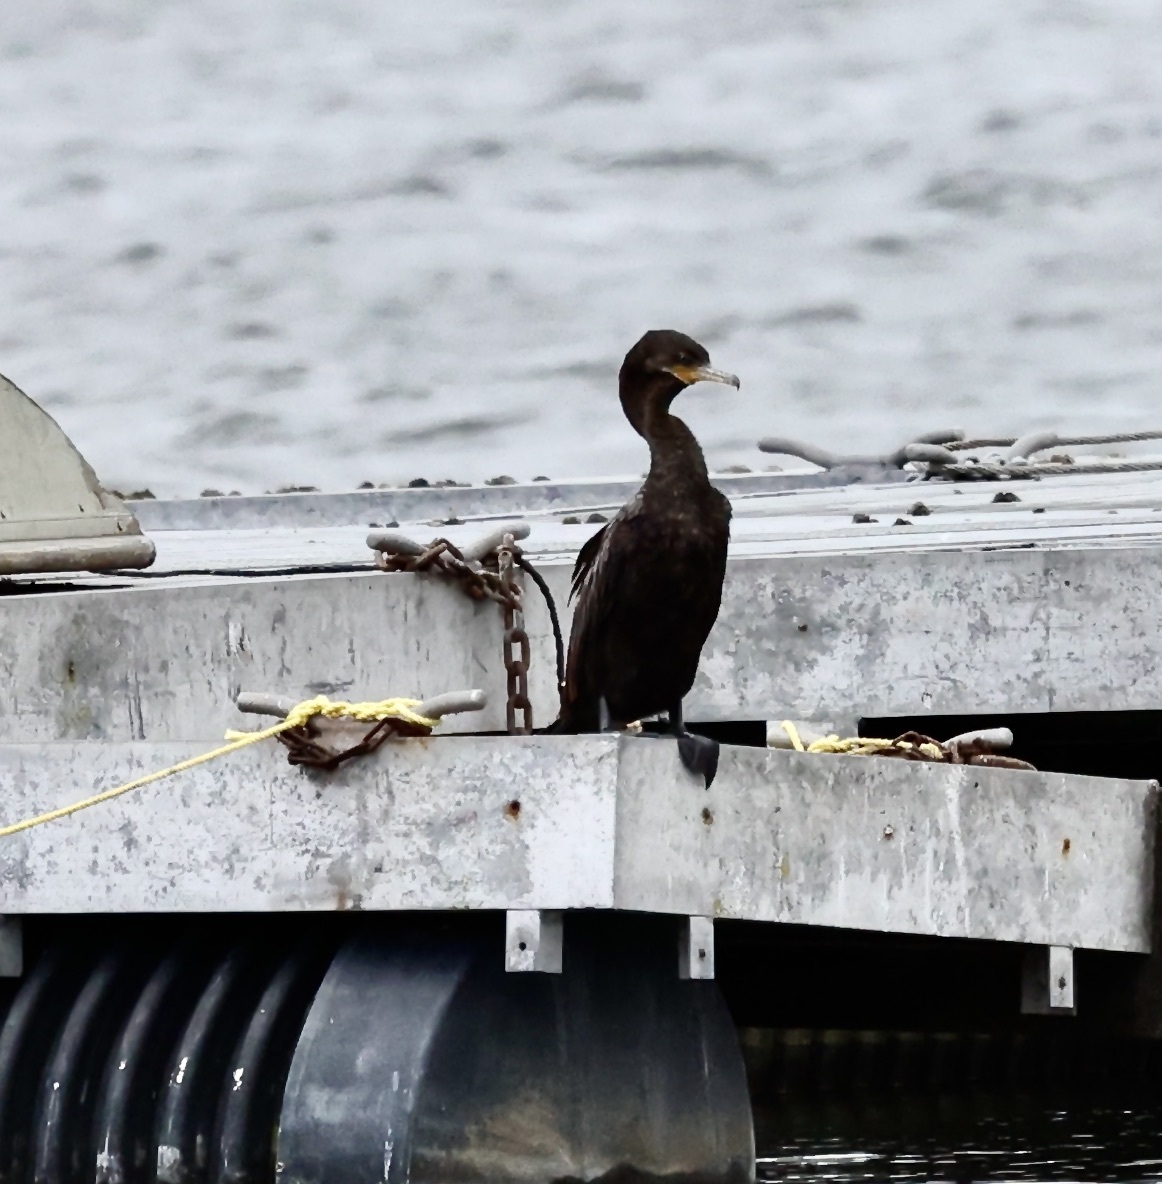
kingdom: Animalia
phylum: Chordata
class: Aves
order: Suliformes
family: Phalacrocoracidae
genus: Phalacrocorax
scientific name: Phalacrocorax brasilianus
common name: Neotropic cormorant
